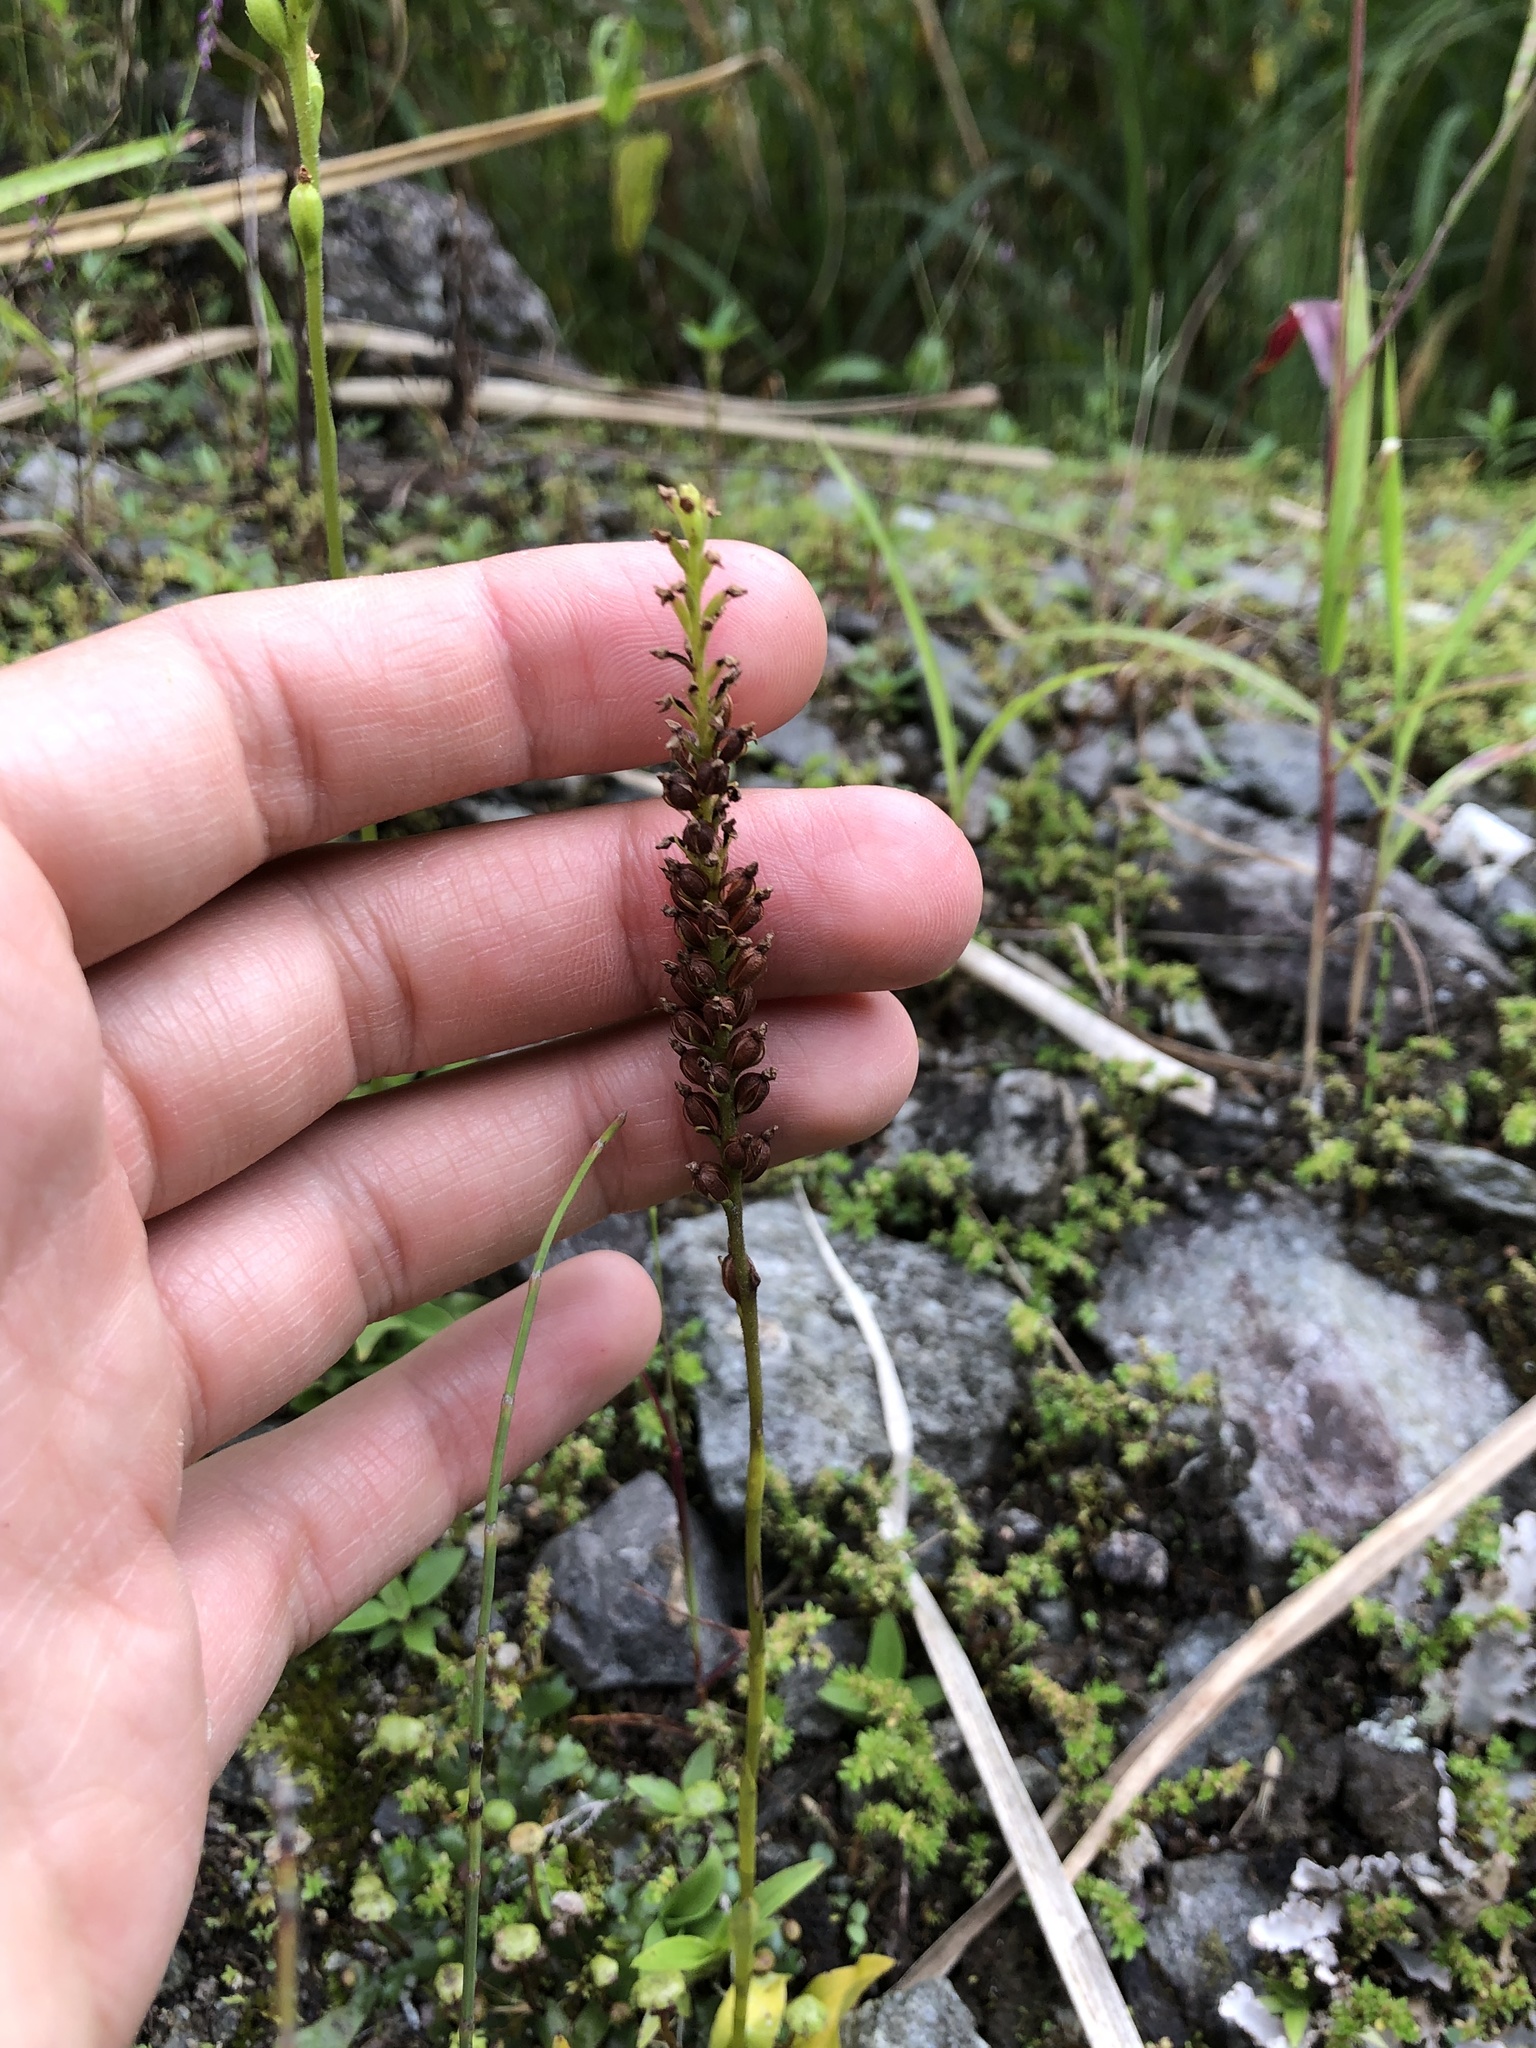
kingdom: Plantae
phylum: Tracheophyta
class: Liliopsida
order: Asparagales
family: Orchidaceae
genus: Ponthieva
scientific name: Ponthieva fertilis
